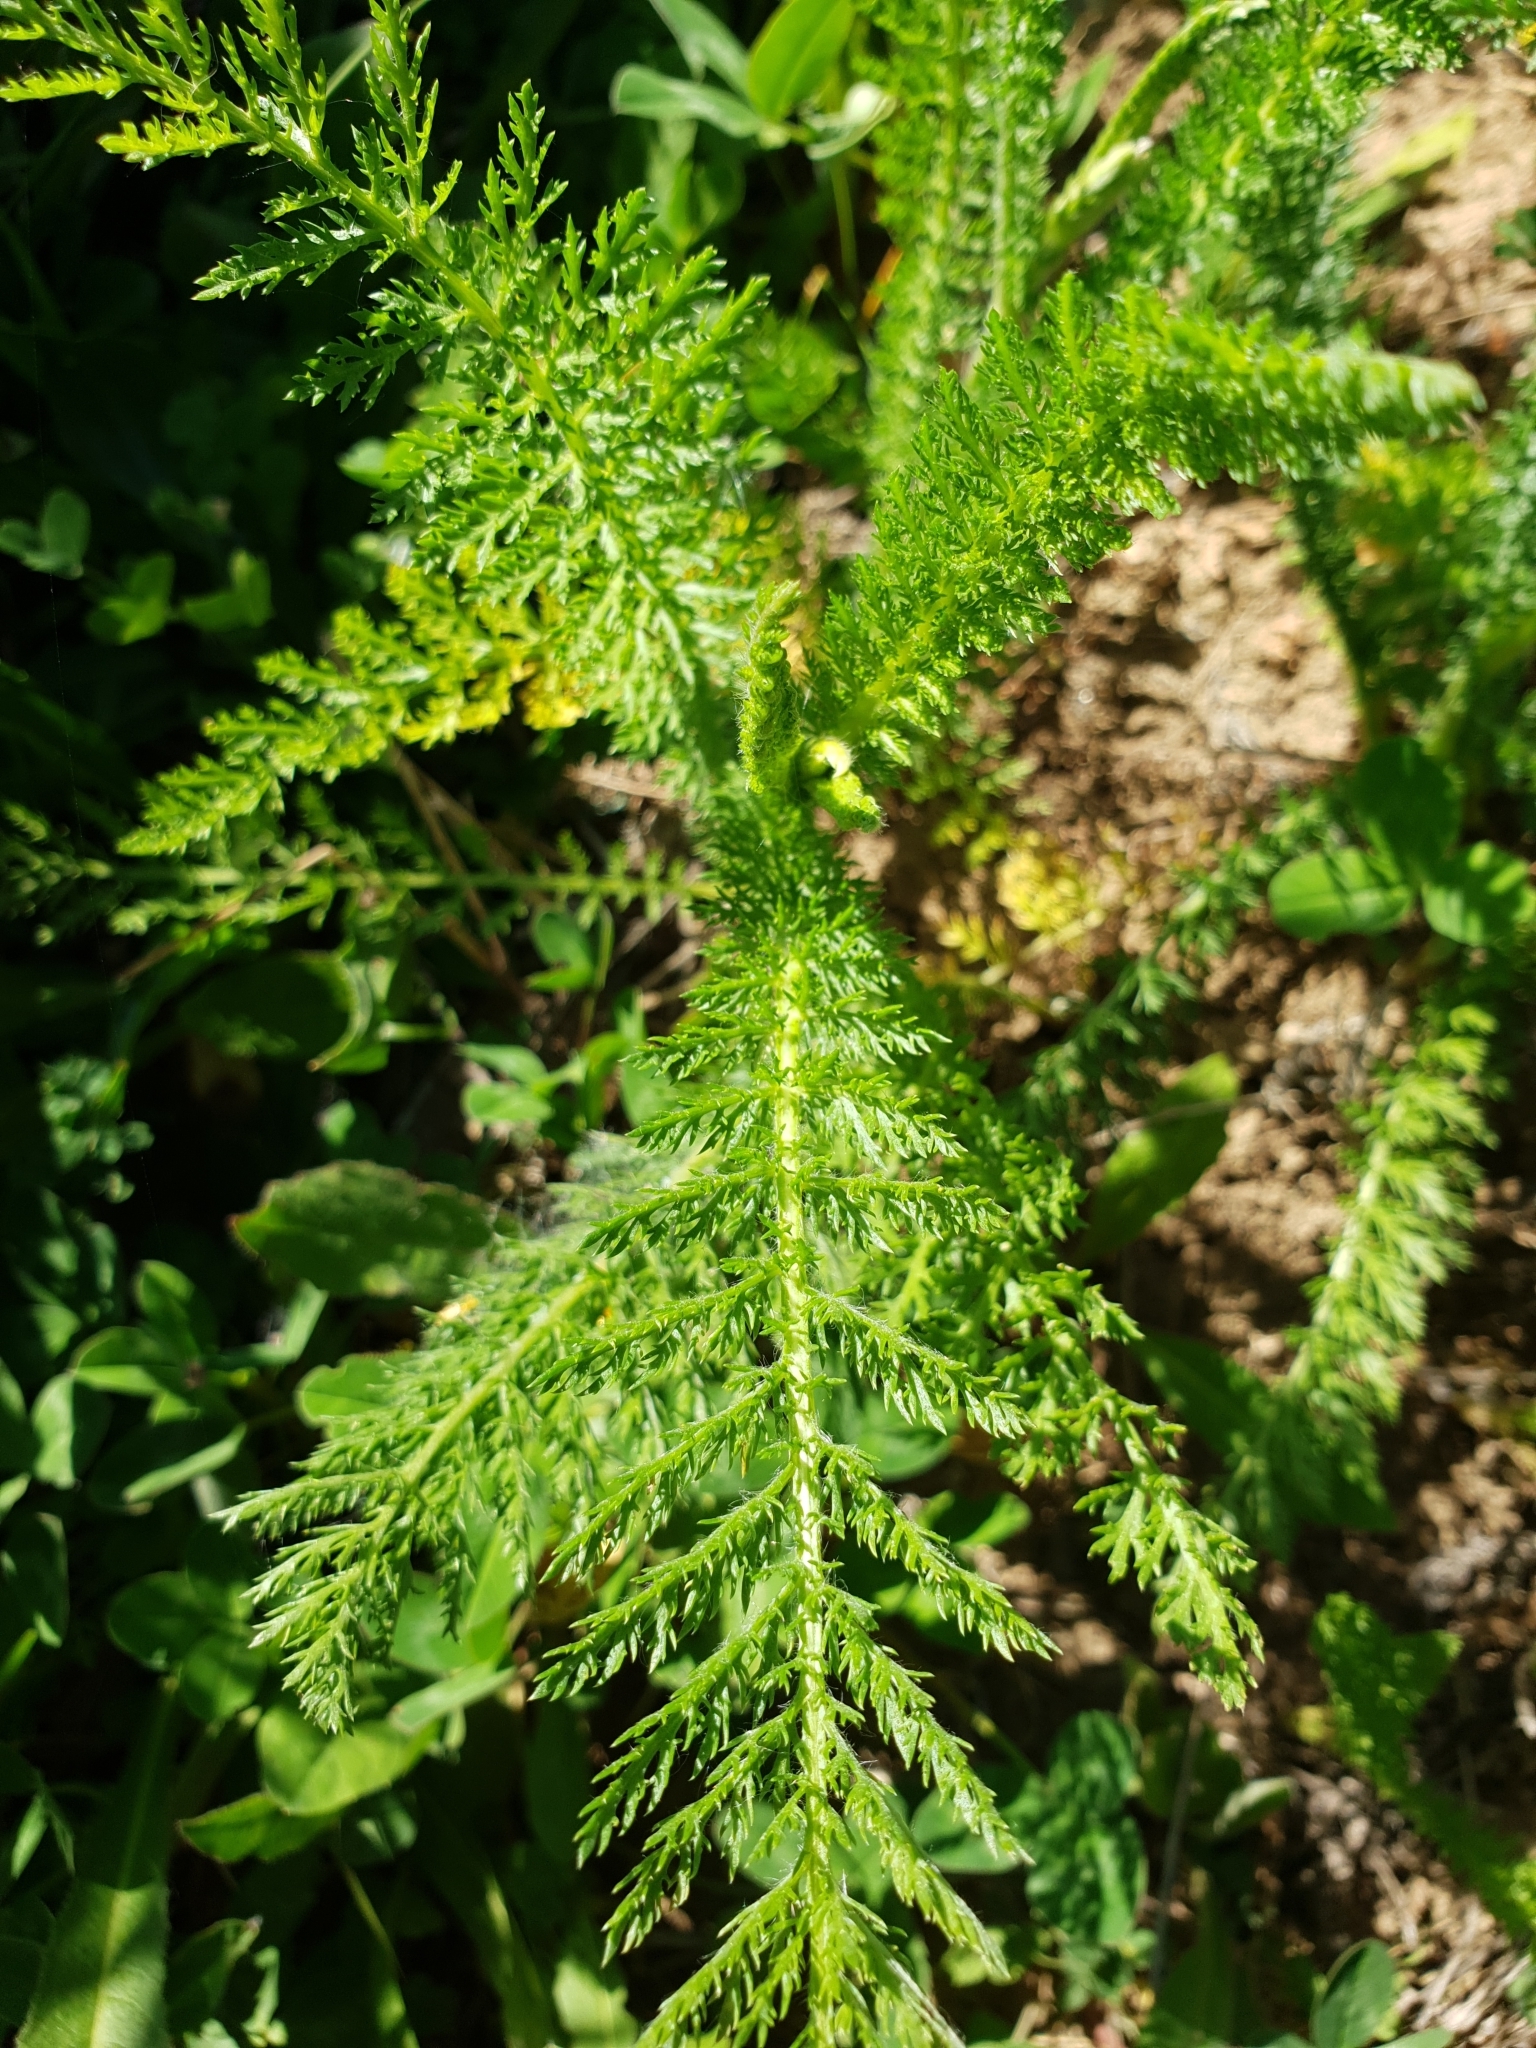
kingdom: Plantae
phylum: Tracheophyta
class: Magnoliopsida
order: Asterales
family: Asteraceae
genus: Achillea
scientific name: Achillea millefolium
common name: Yarrow
